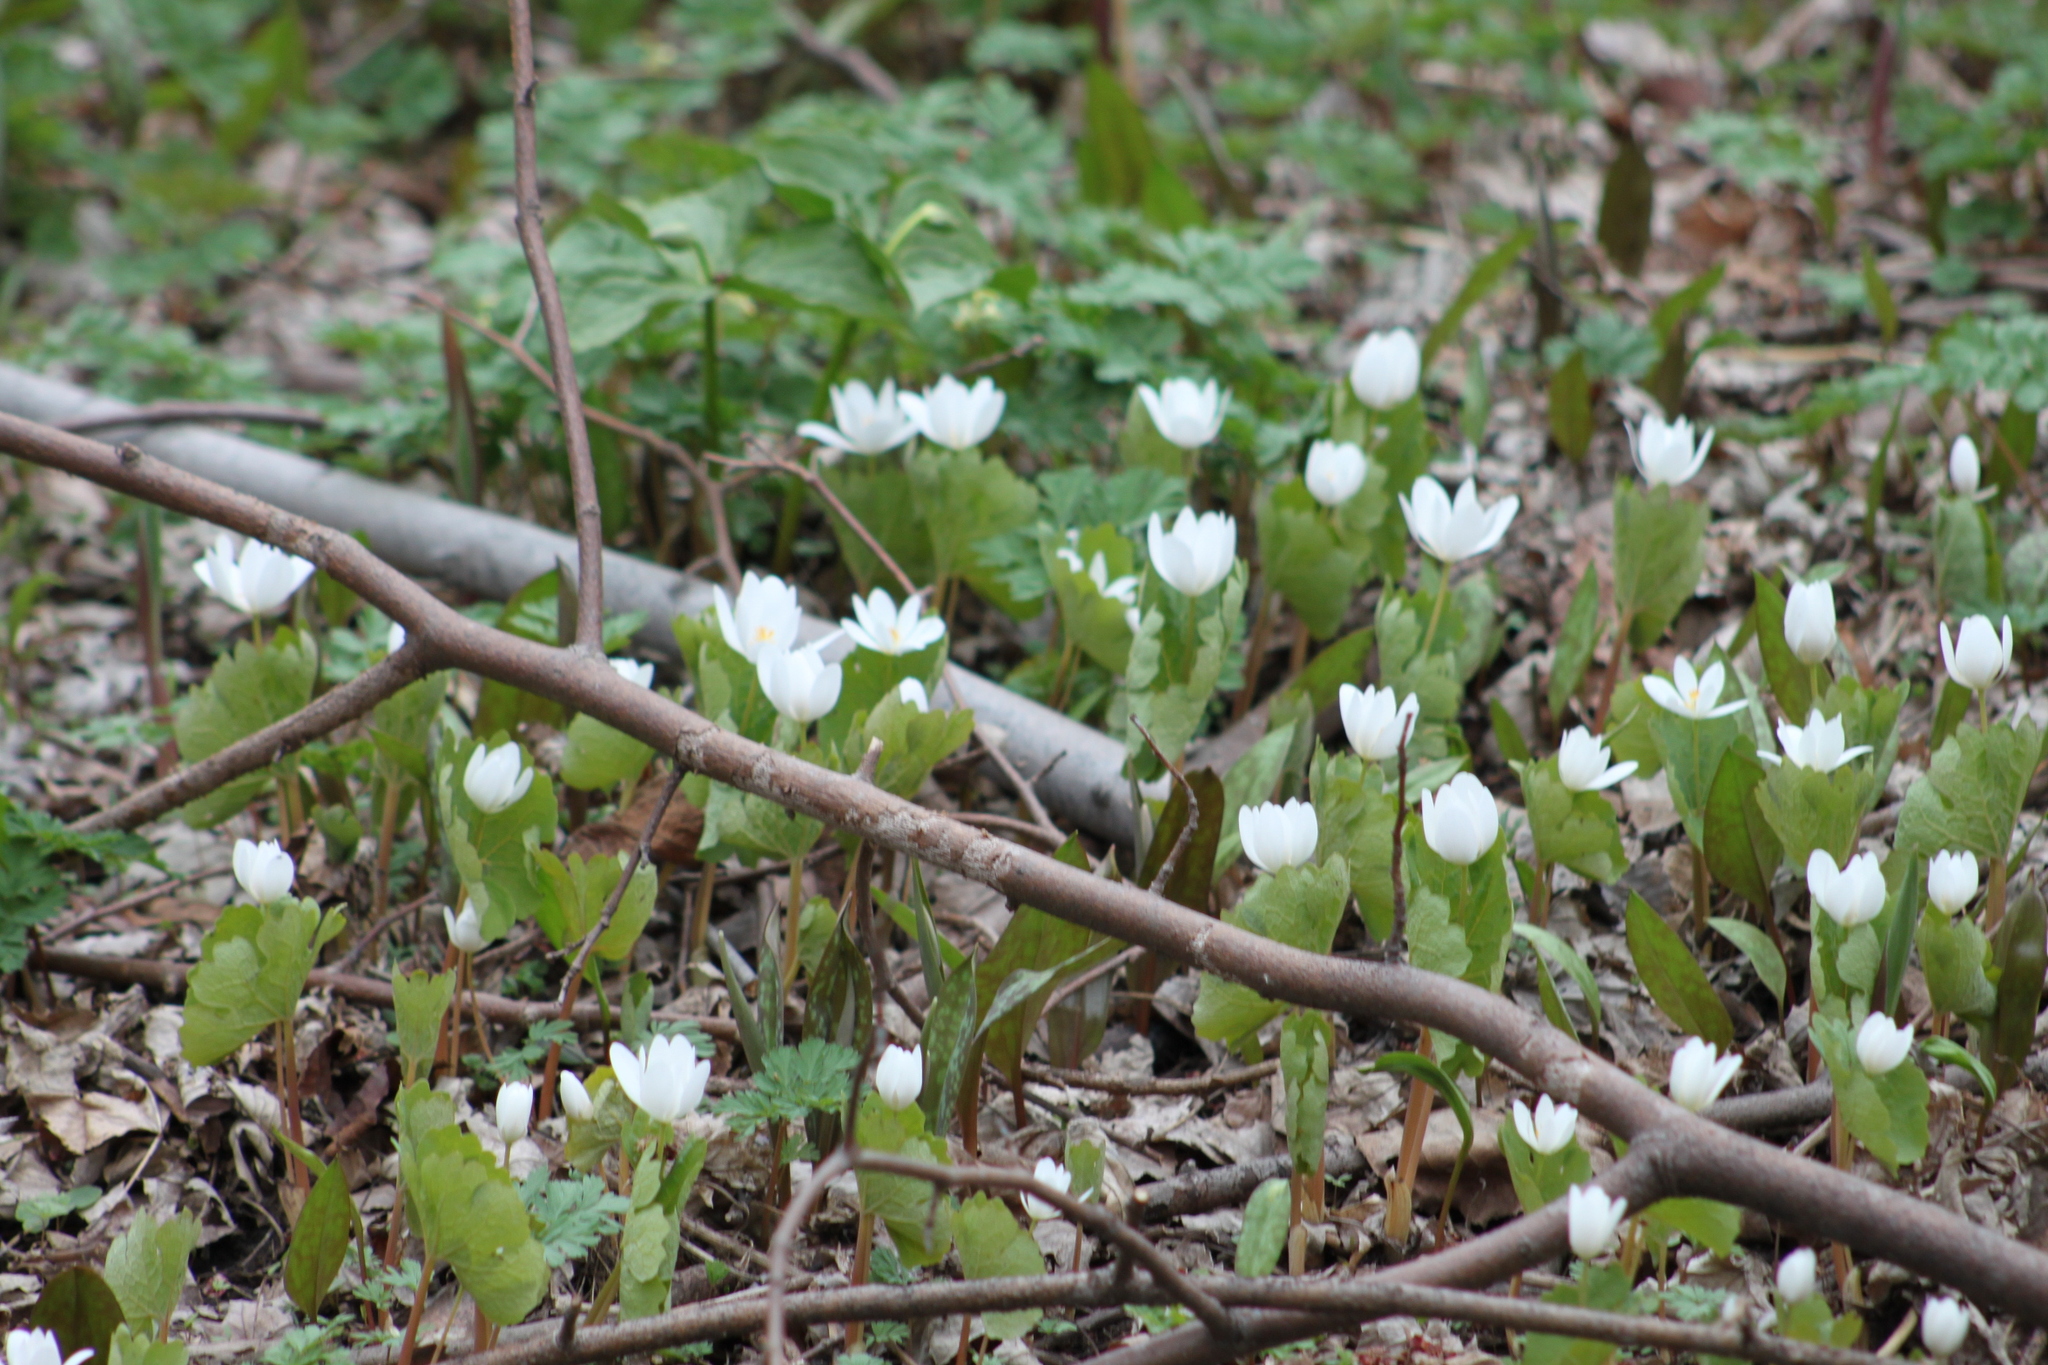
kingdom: Plantae
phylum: Tracheophyta
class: Magnoliopsida
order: Ranunculales
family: Papaveraceae
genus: Sanguinaria
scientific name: Sanguinaria canadensis
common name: Bloodroot
